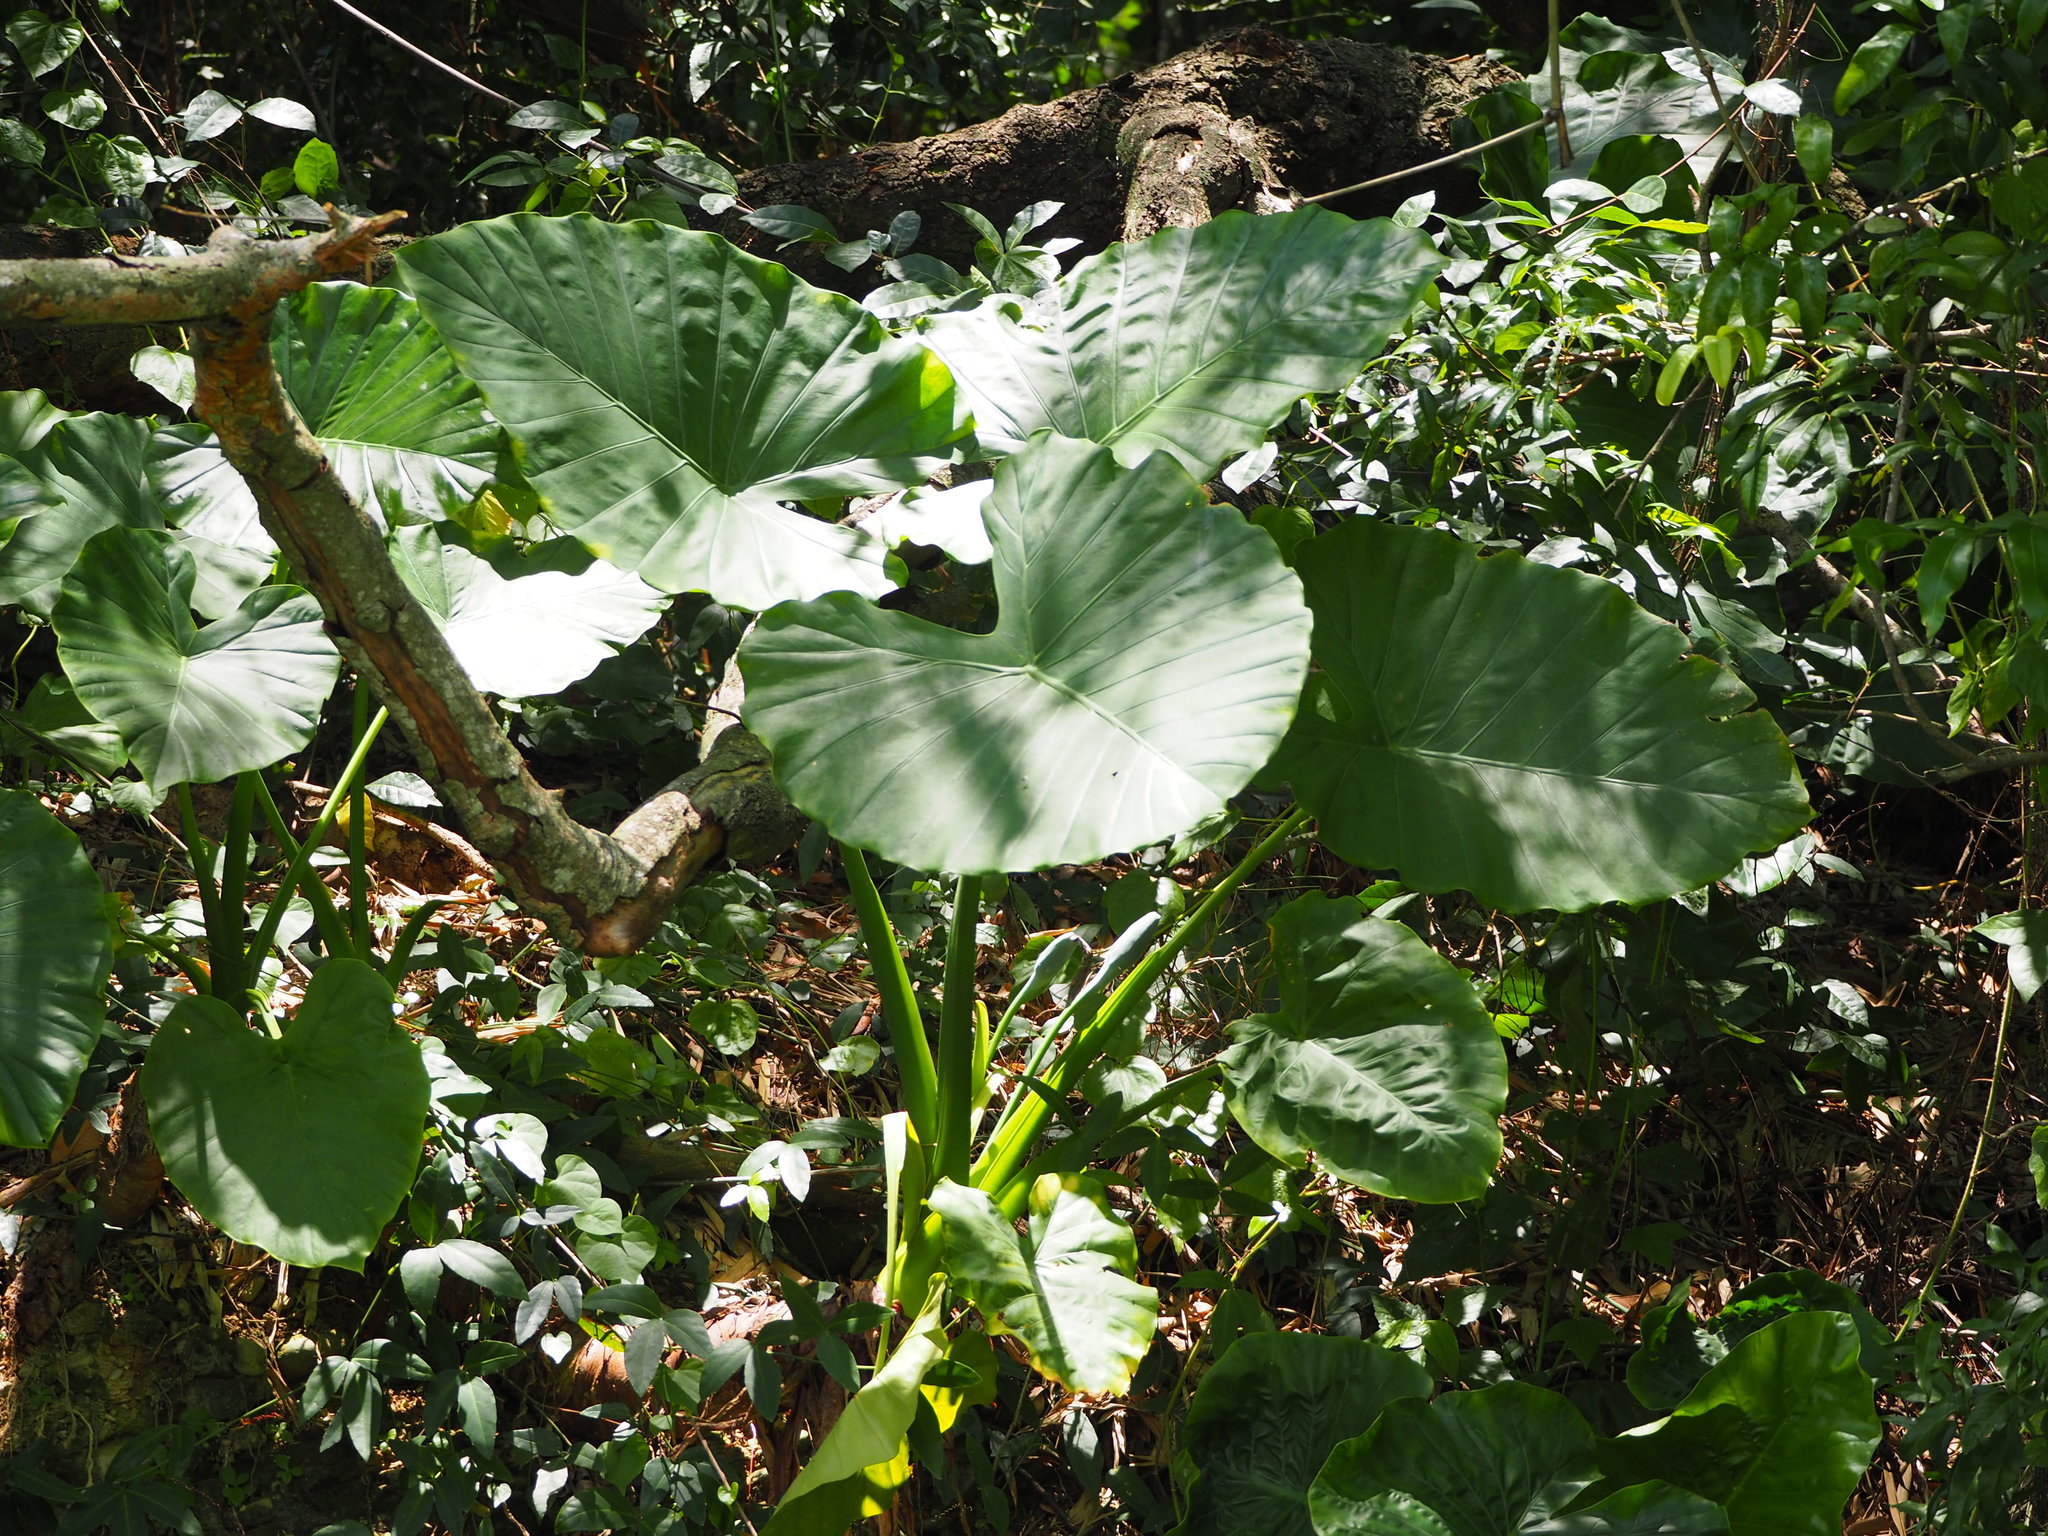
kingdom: Plantae
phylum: Tracheophyta
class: Liliopsida
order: Alismatales
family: Araceae
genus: Alocasia
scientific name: Alocasia odora
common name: Asian taro
